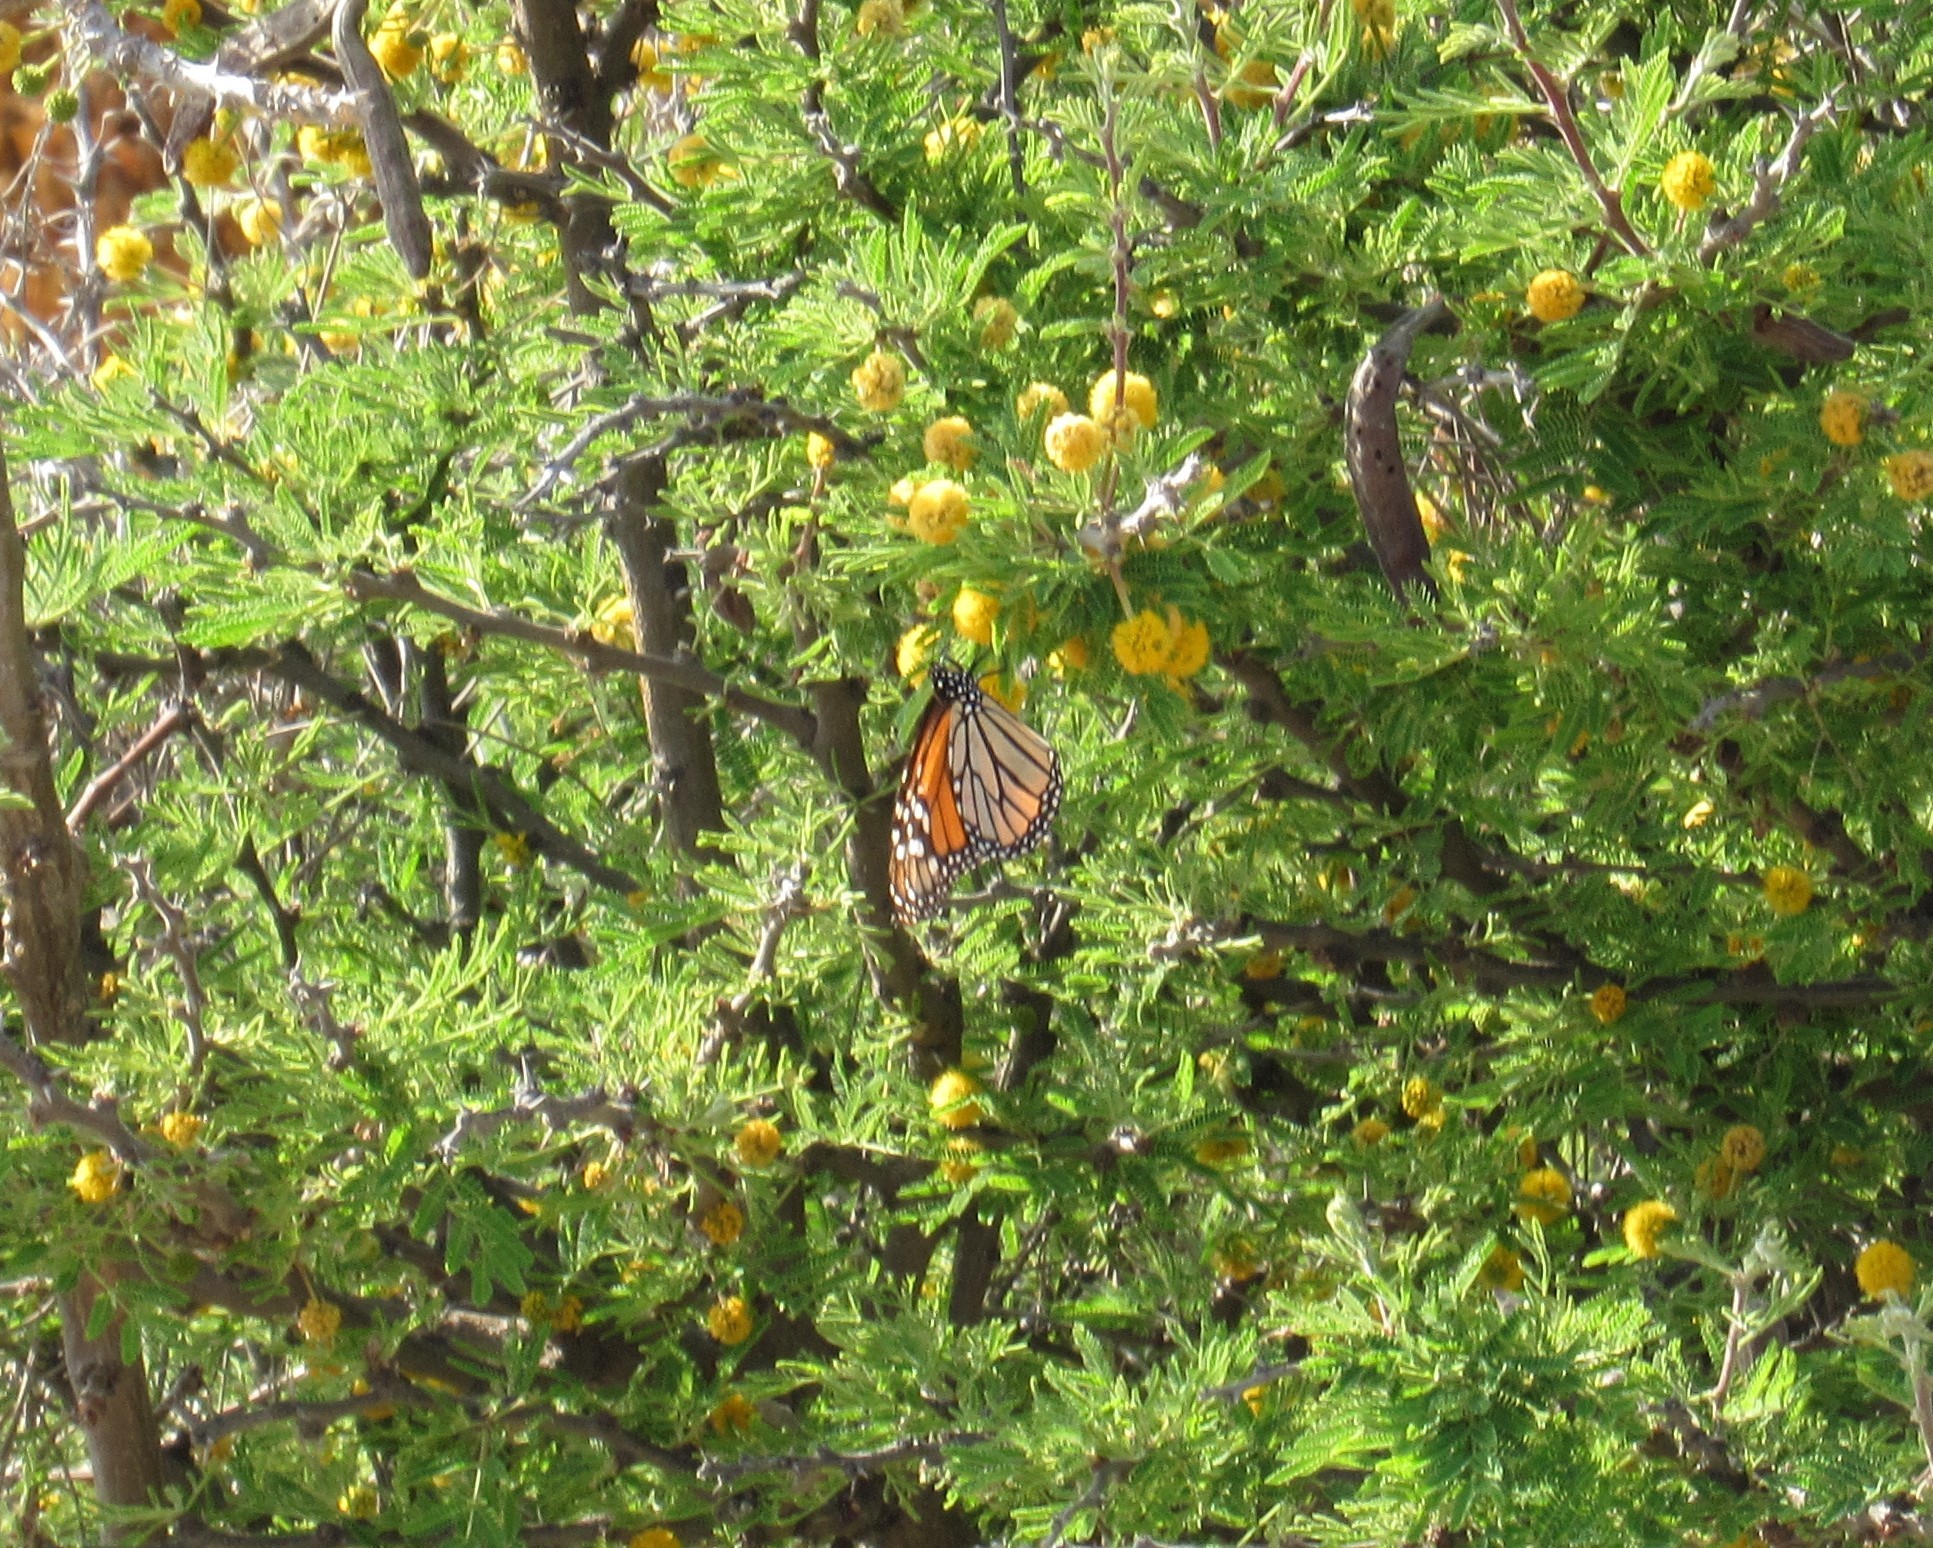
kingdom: Animalia
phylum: Arthropoda
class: Insecta
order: Lepidoptera
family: Nymphalidae
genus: Danaus
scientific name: Danaus plexippus
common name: Monarch
